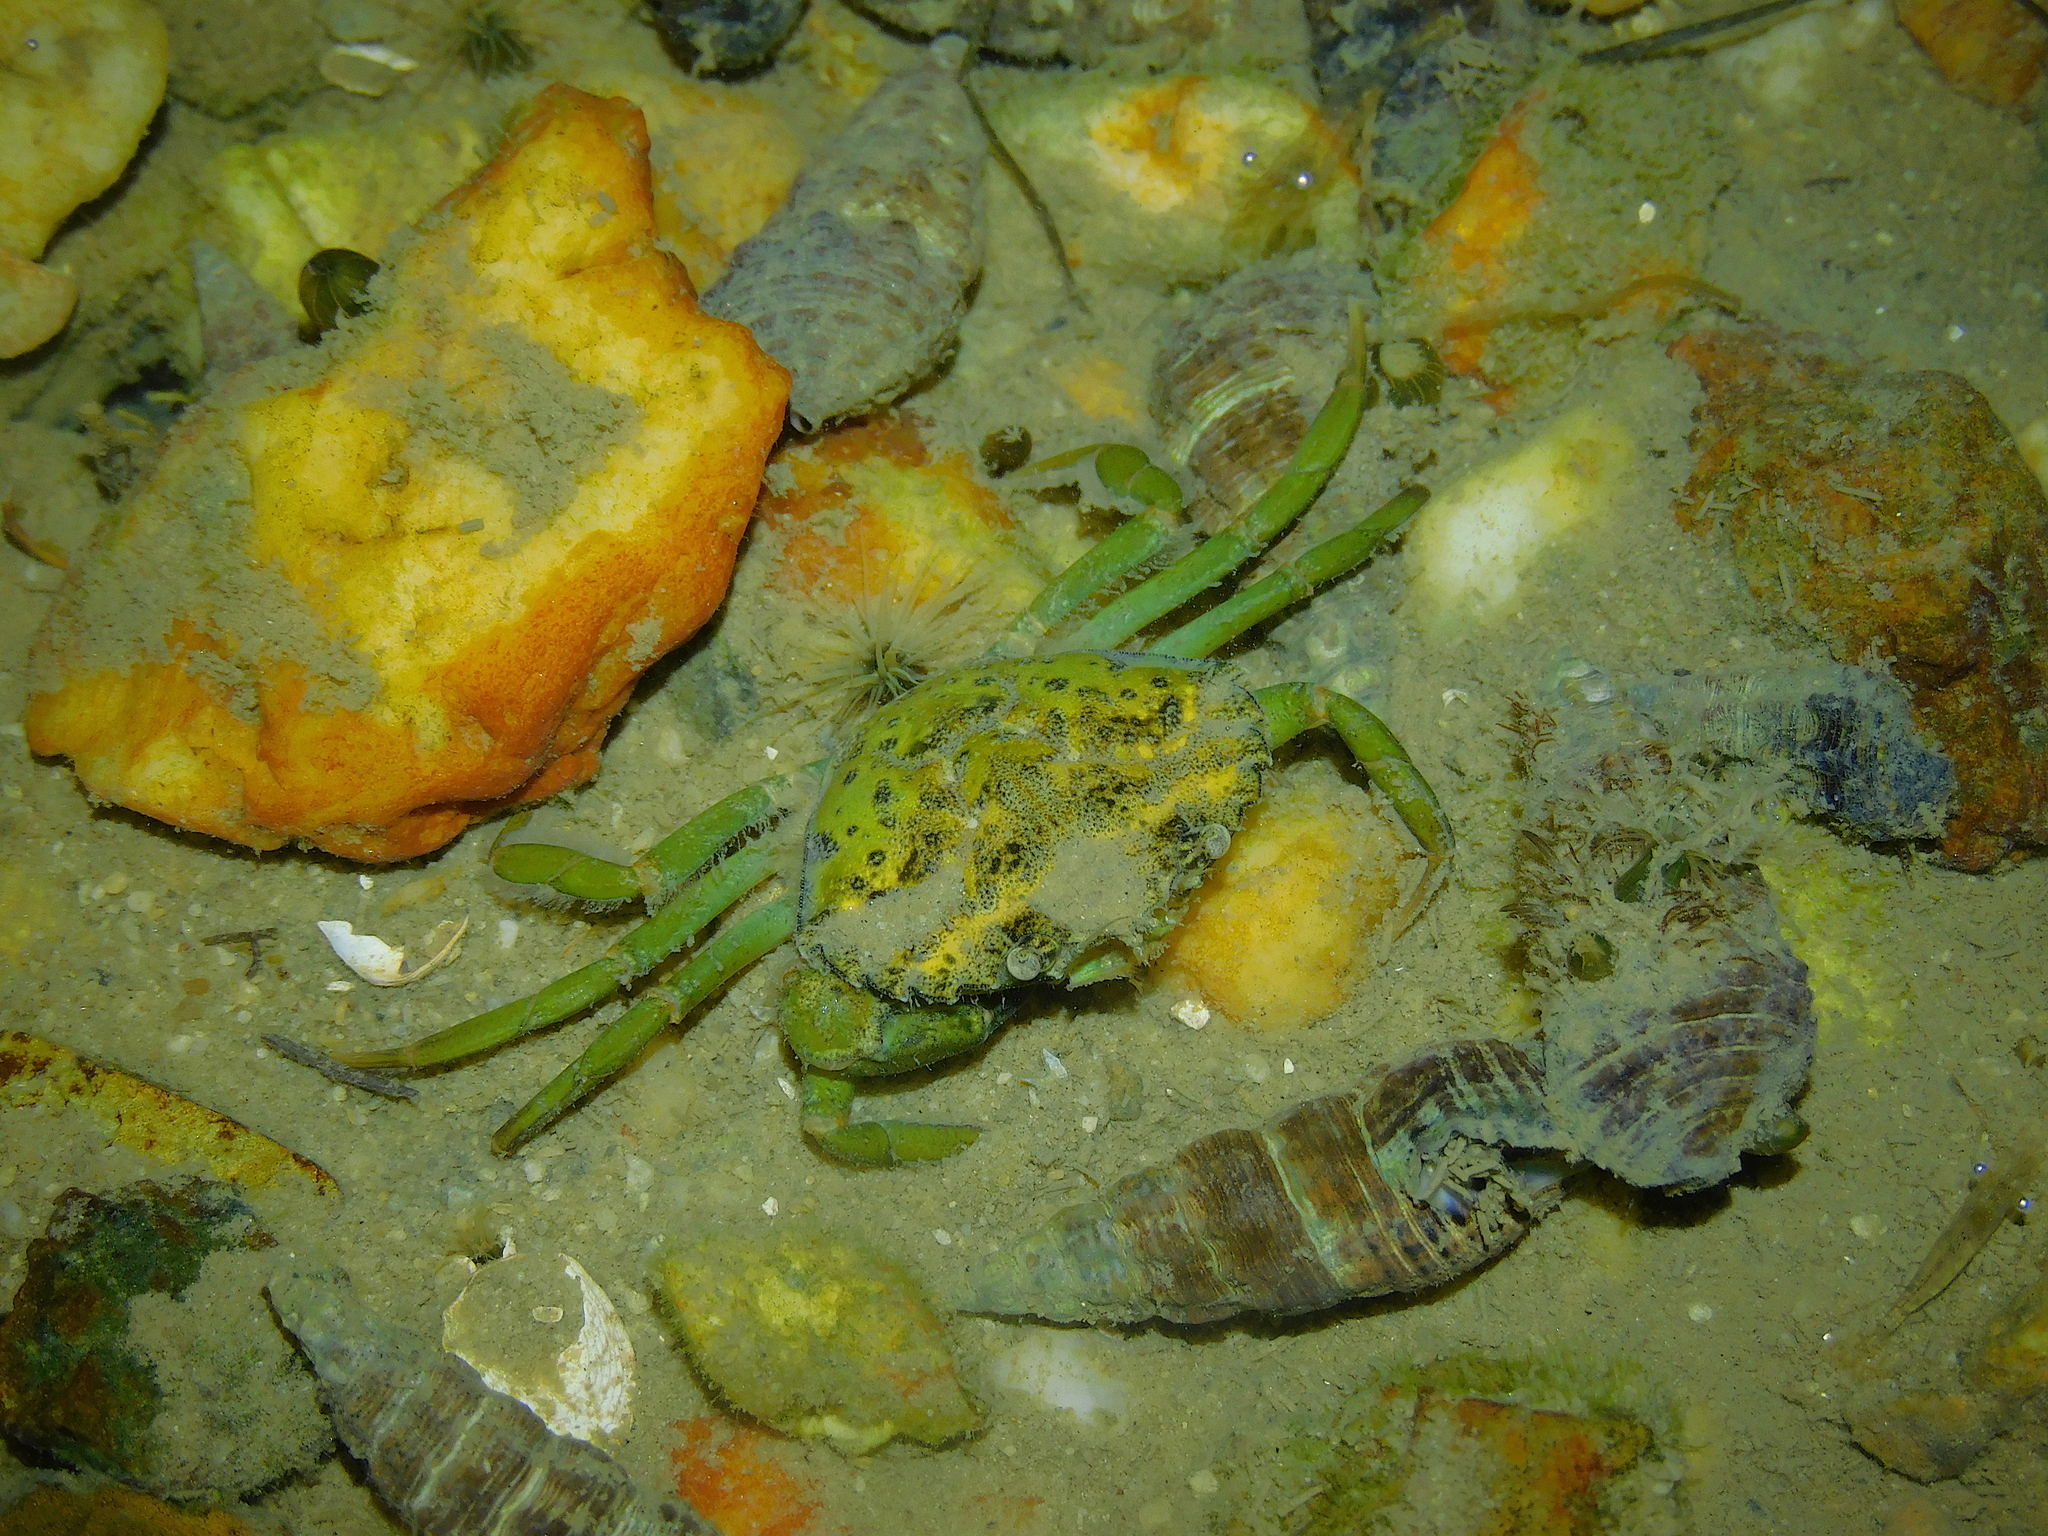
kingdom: Animalia
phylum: Arthropoda
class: Malacostraca
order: Decapoda
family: Carcinidae
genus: Carcinus
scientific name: Carcinus maenas
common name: European green crab
